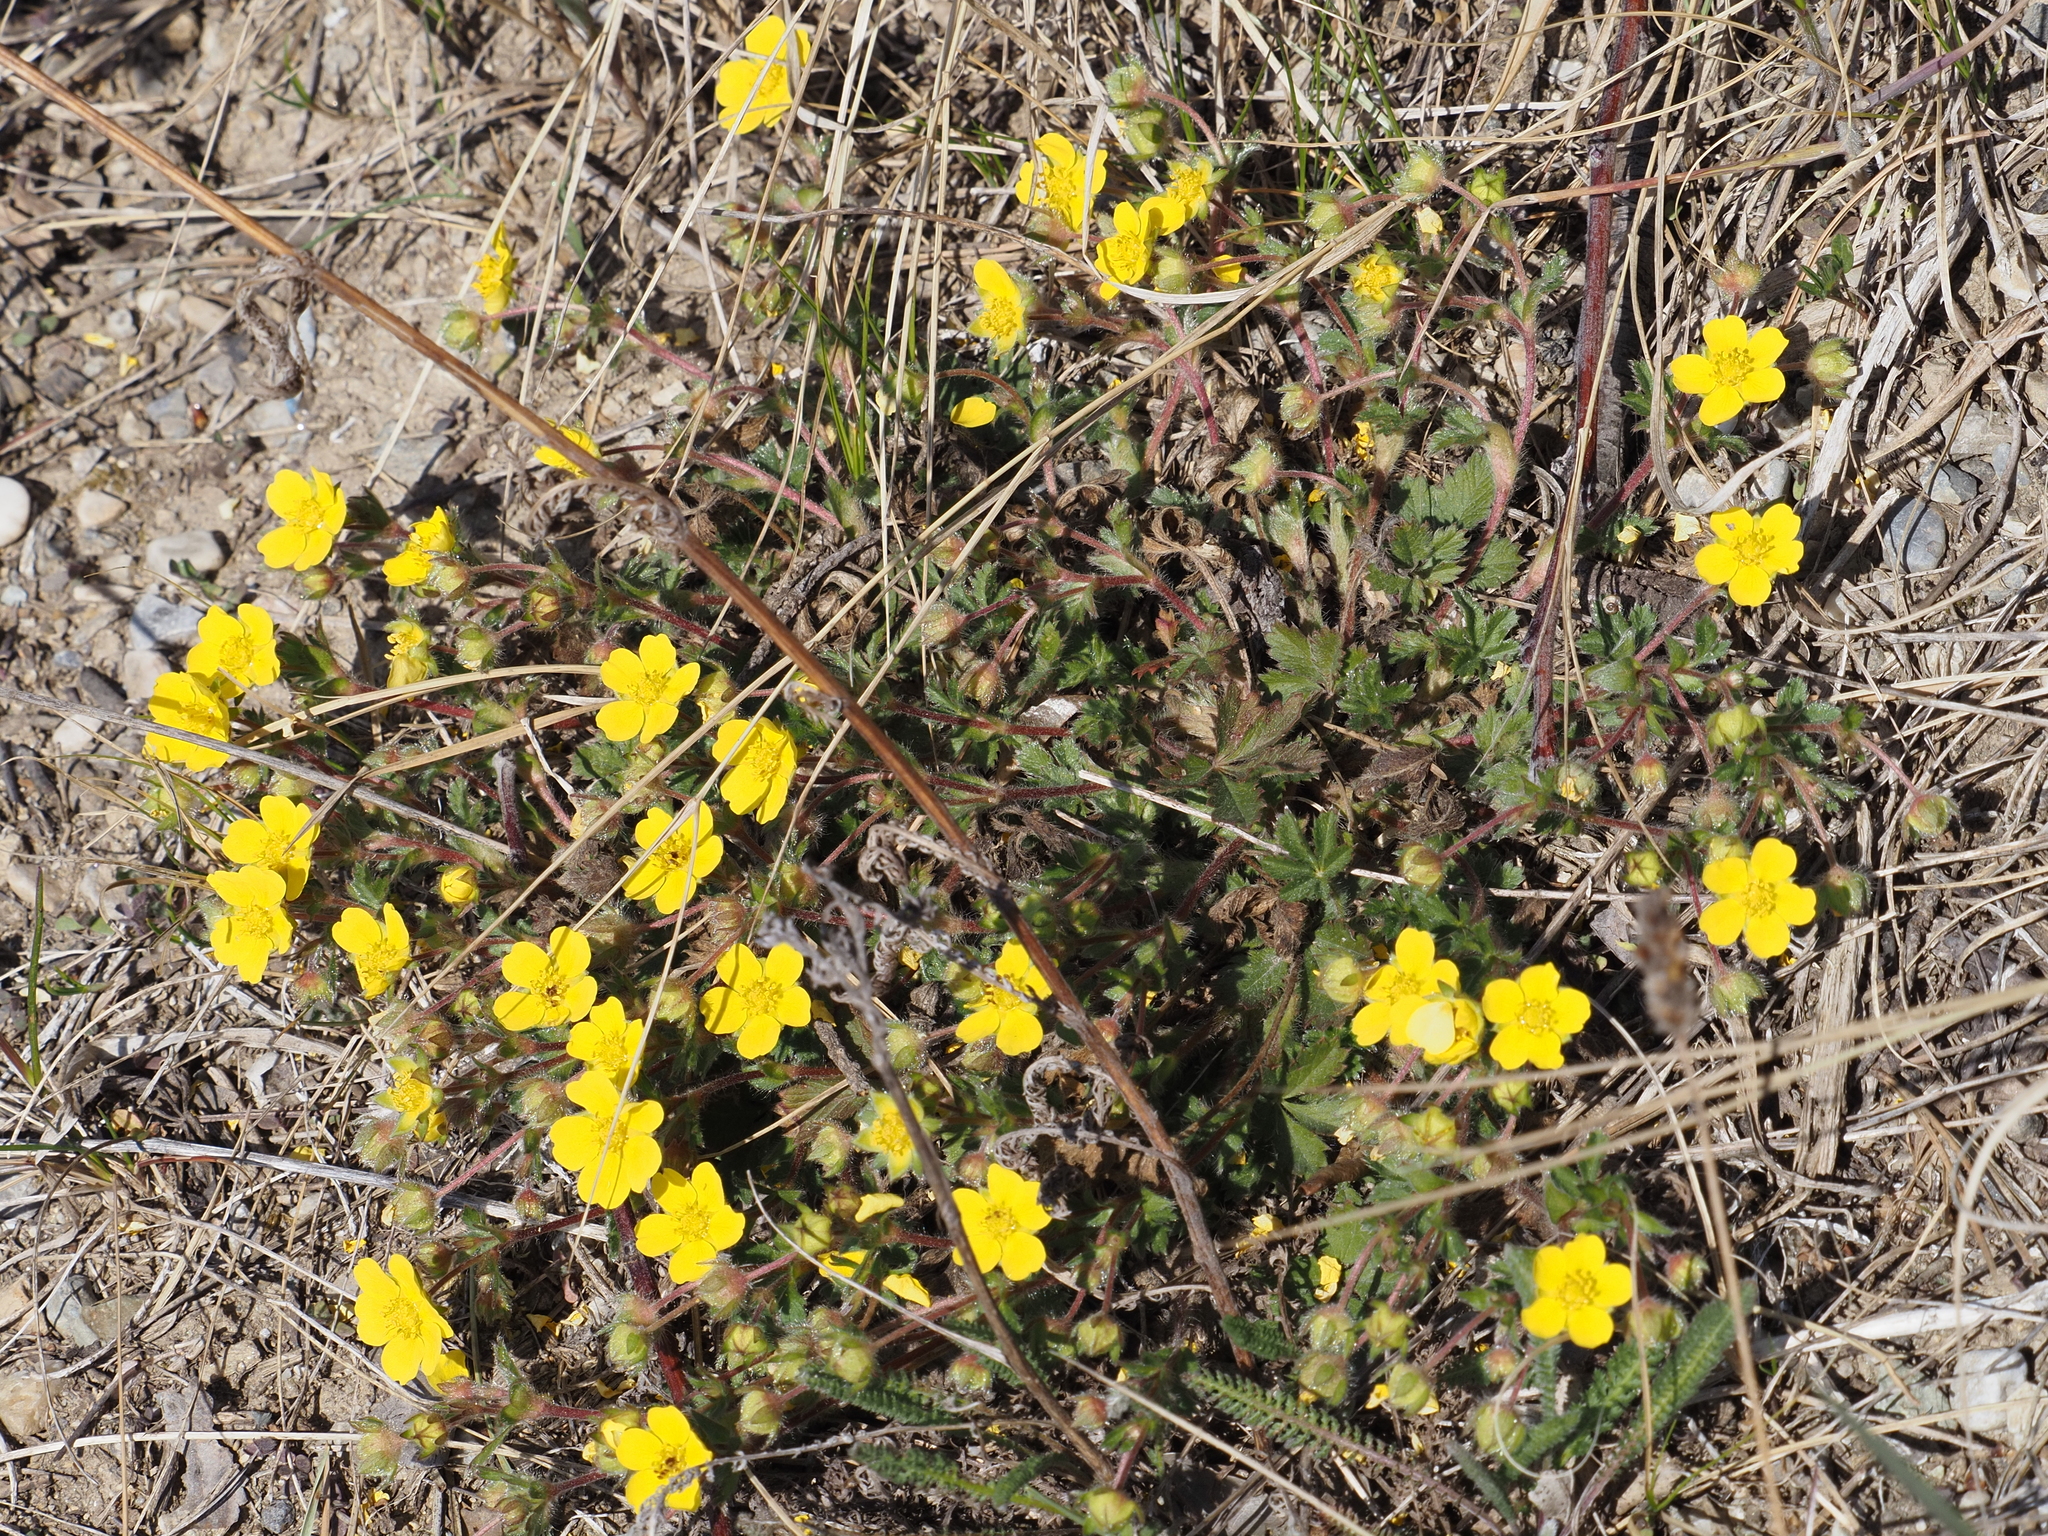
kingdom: Plantae
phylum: Tracheophyta
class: Magnoliopsida
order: Rosales
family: Rosaceae
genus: Potentilla
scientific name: Potentilla verna
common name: Spring cinquefoil
